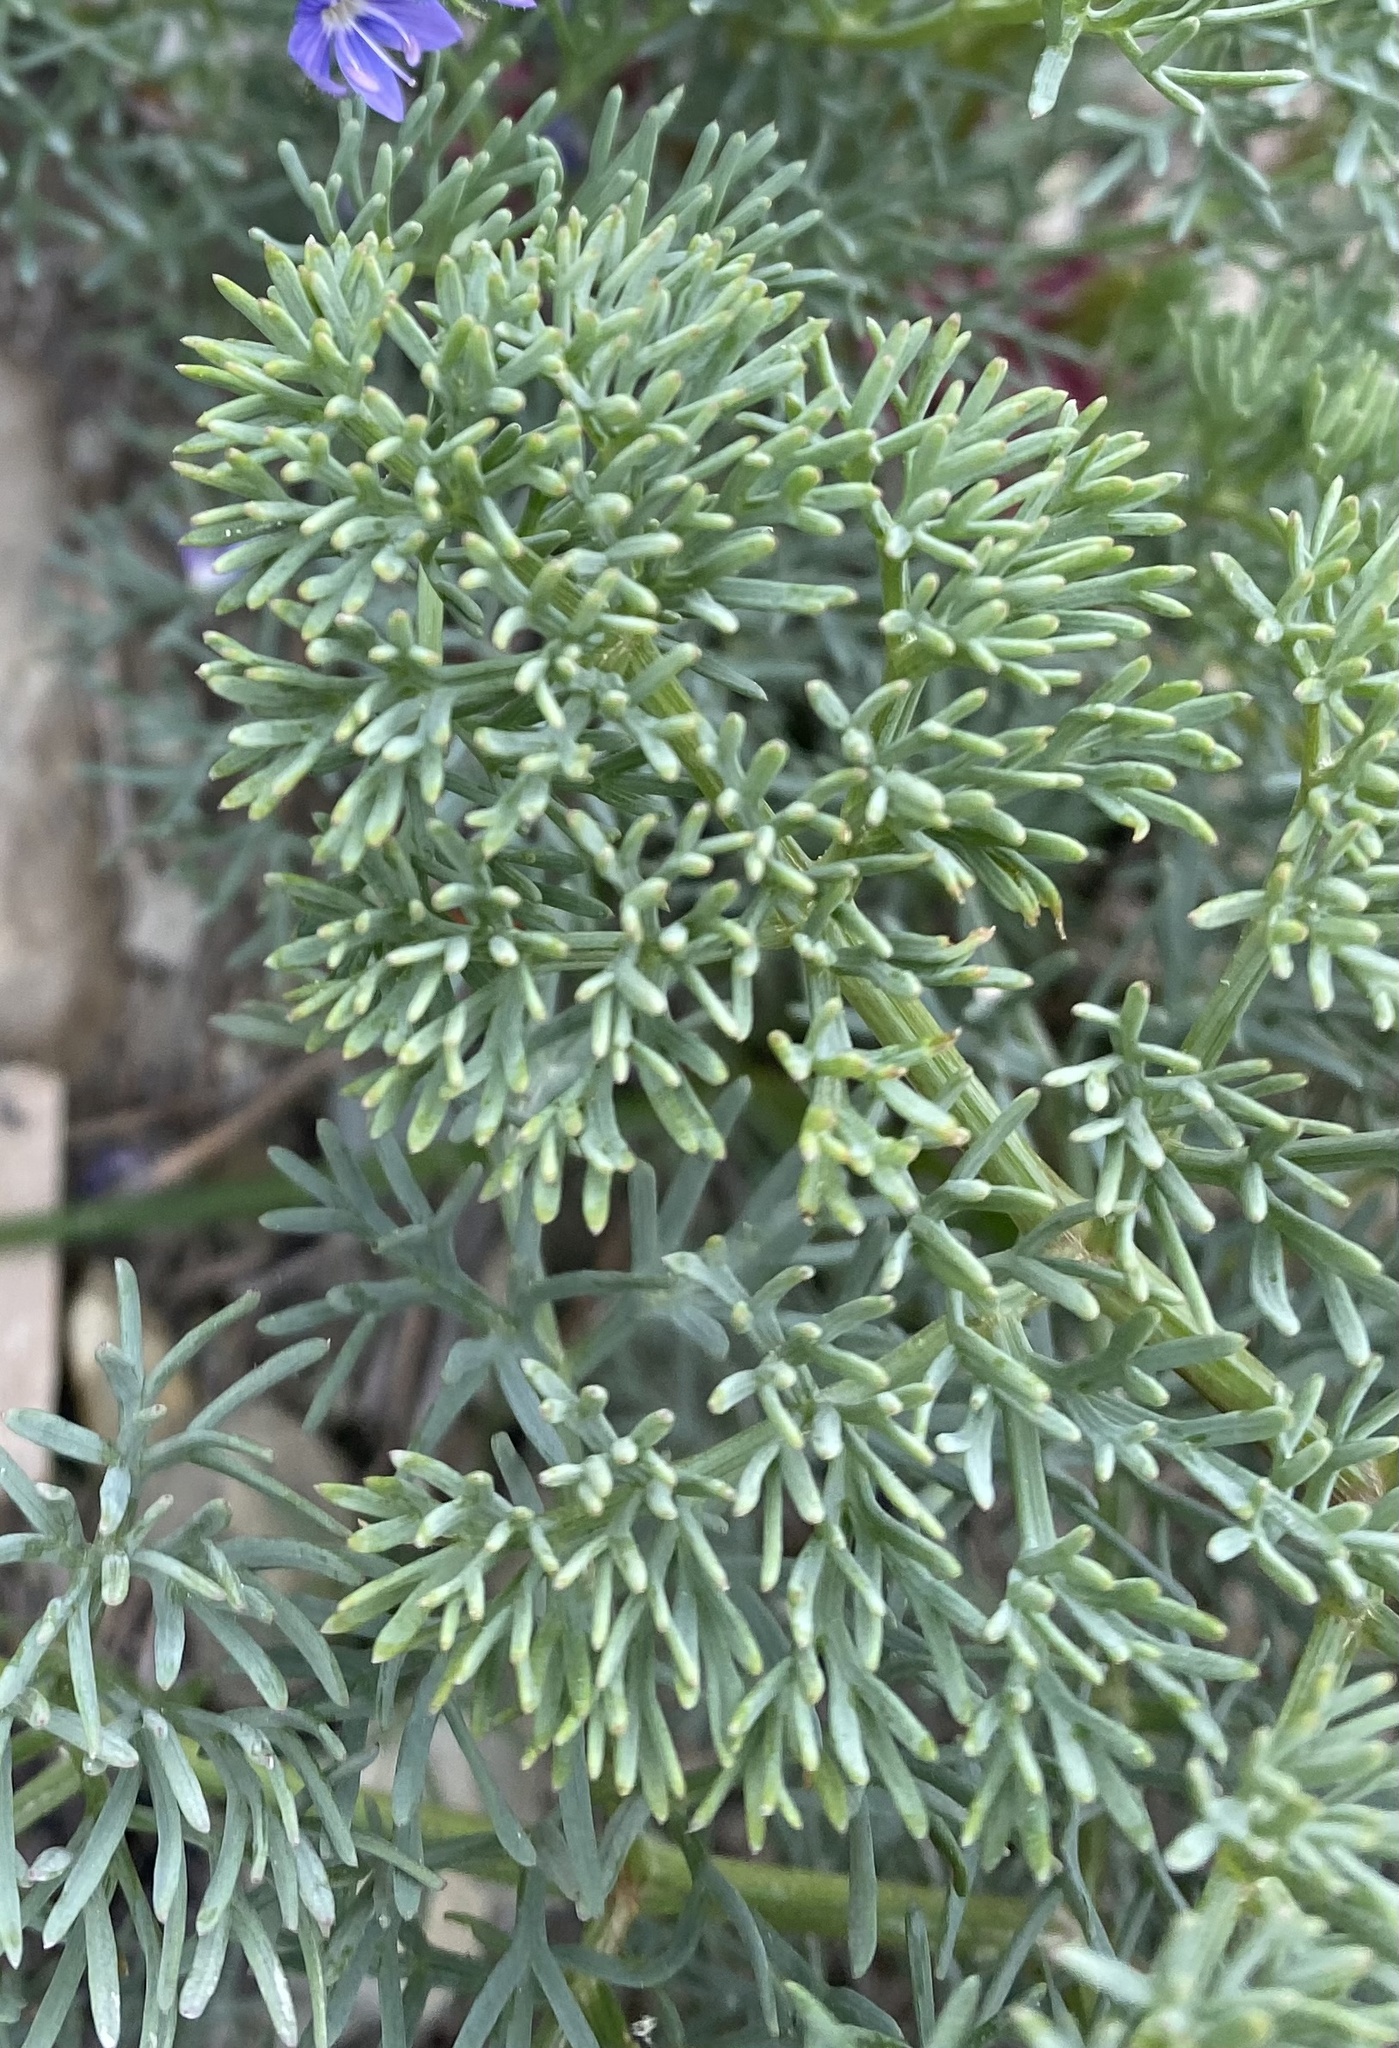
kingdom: Plantae
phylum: Tracheophyta
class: Magnoliopsida
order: Apiales
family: Apiaceae
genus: Seseli
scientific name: Seseli ponticum
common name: Pontic seseli
